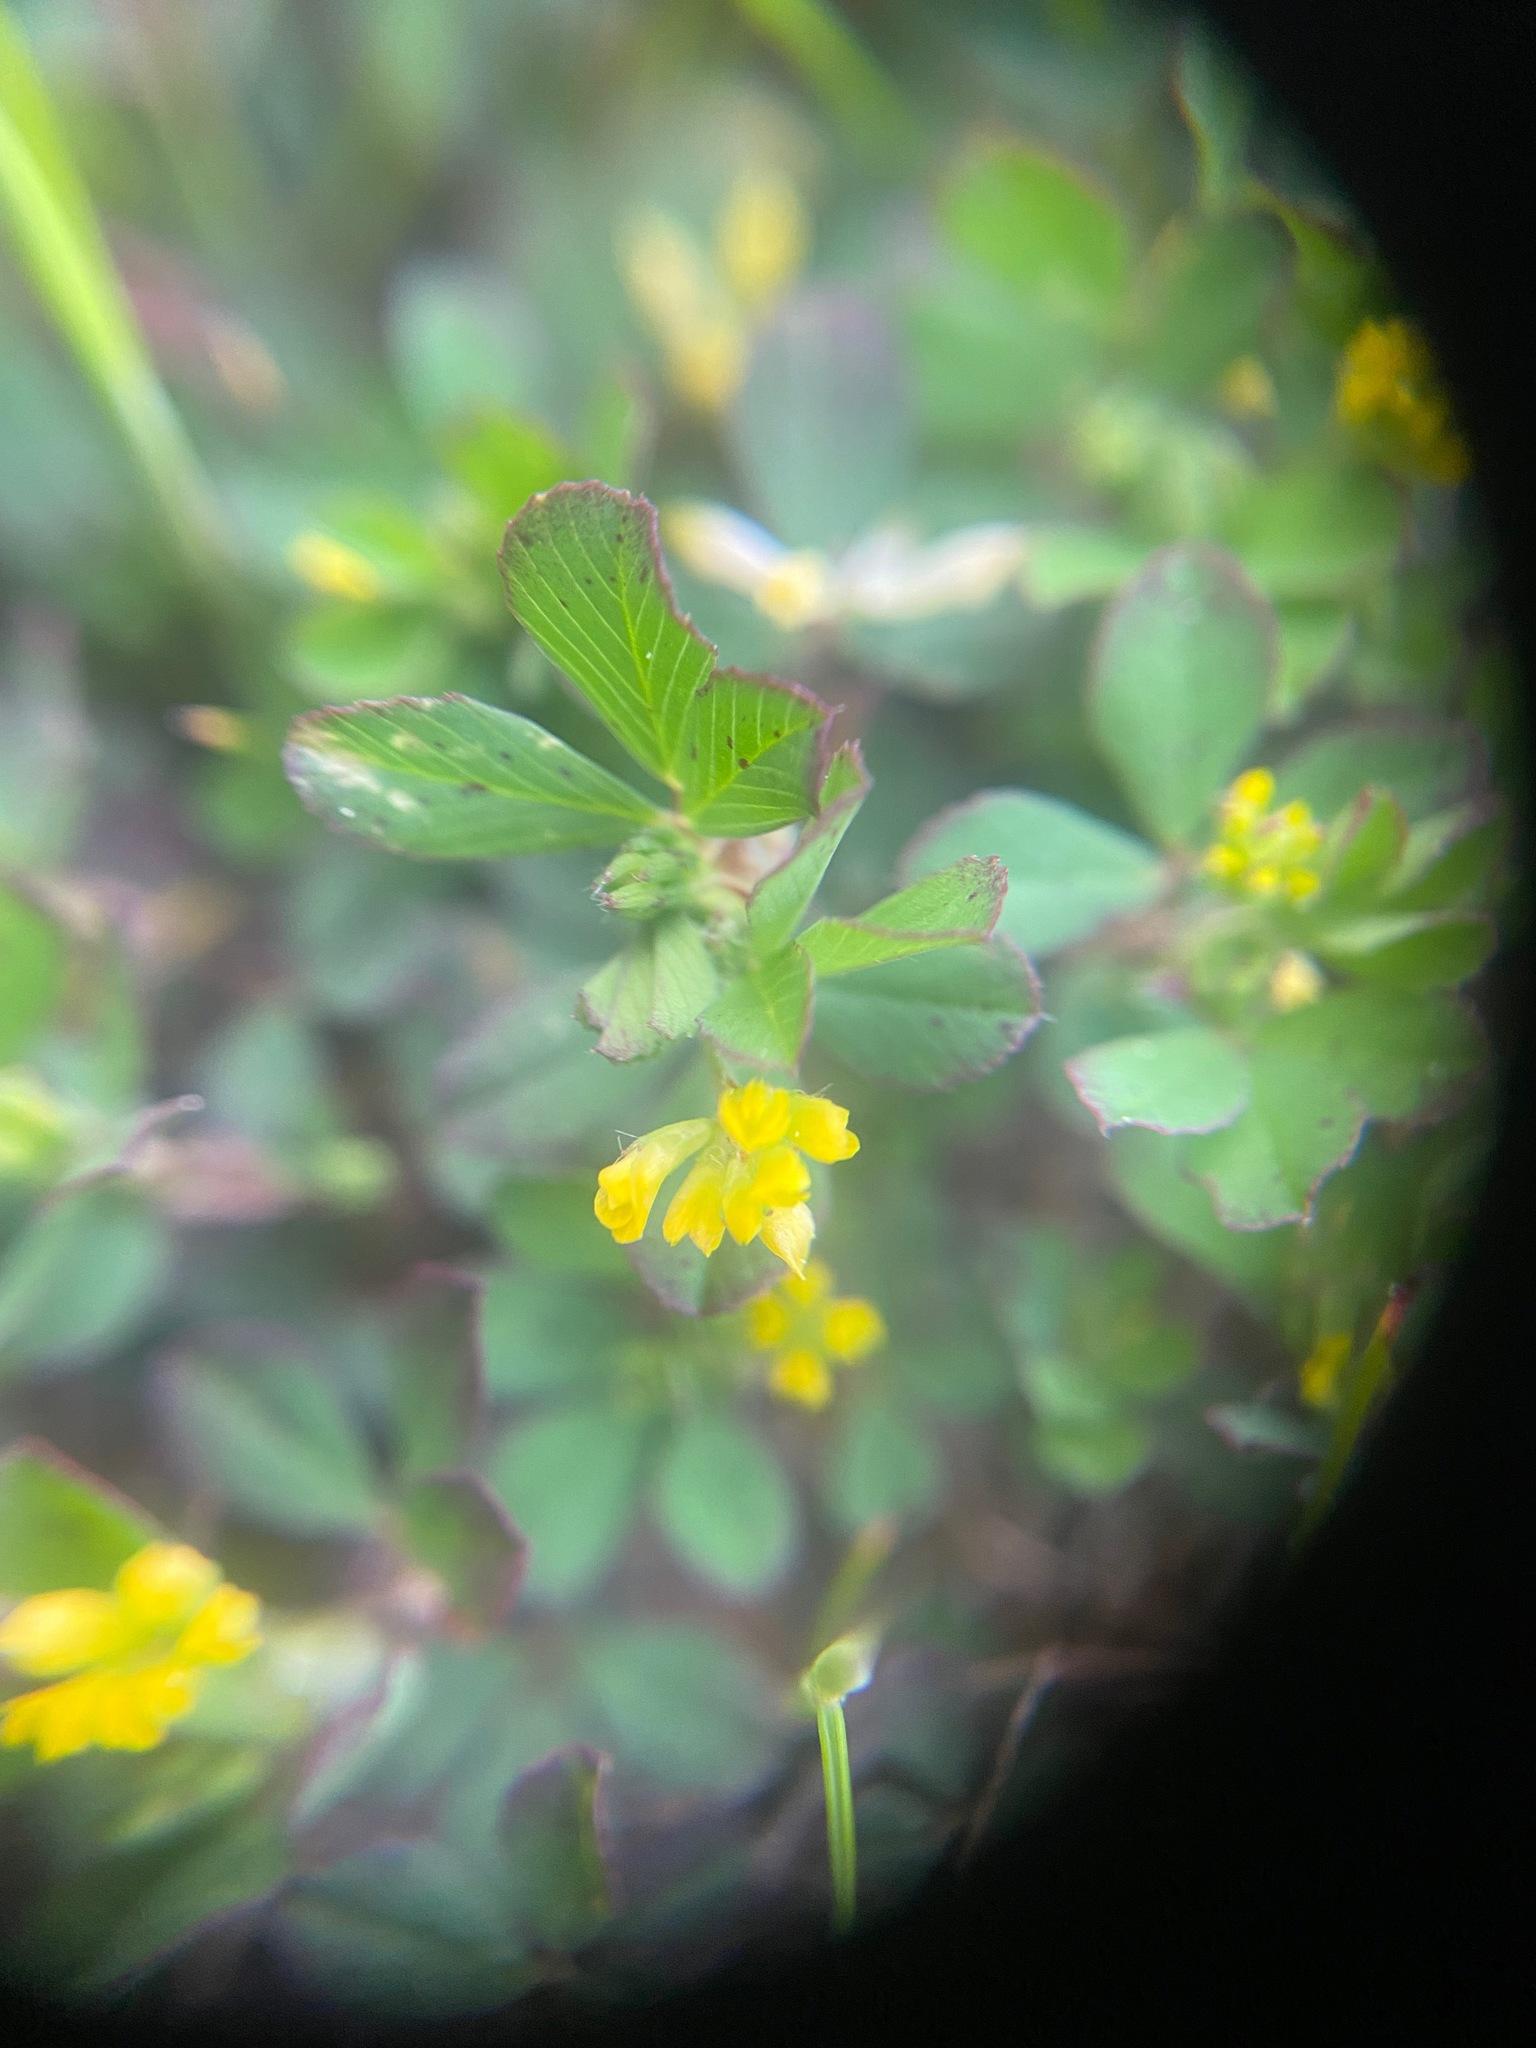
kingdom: Plantae
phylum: Tracheophyta
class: Magnoliopsida
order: Fabales
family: Fabaceae
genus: Trifolium
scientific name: Trifolium dubium
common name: Suckling clover
